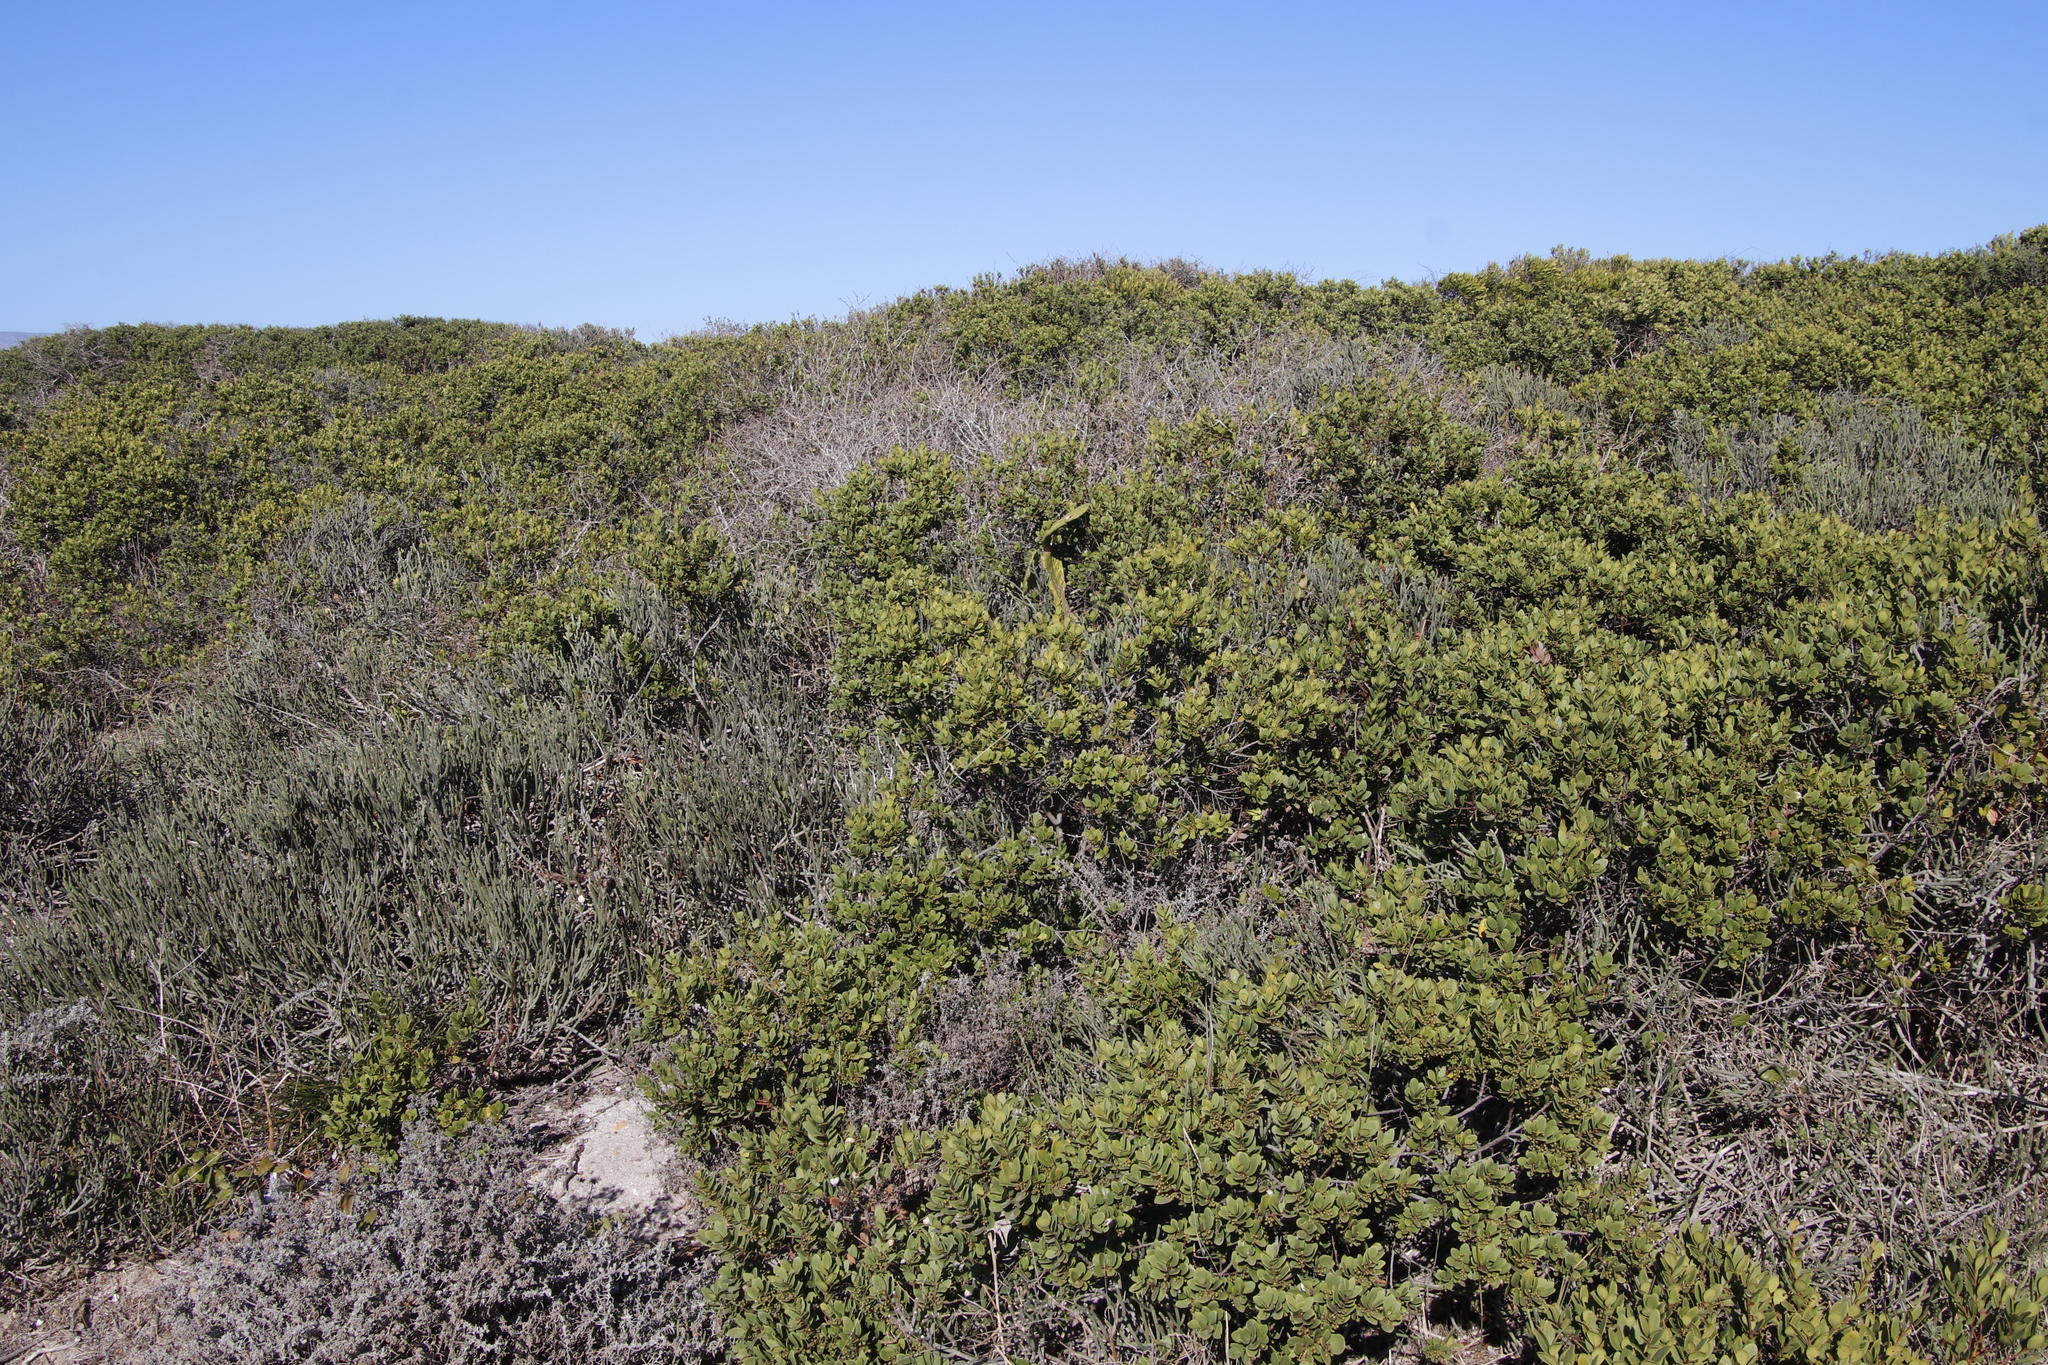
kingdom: Plantae
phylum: Tracheophyta
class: Magnoliopsida
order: Caryophyllales
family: Cactaceae
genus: Opuntia
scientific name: Opuntia ficus-indica
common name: Barbary fig
